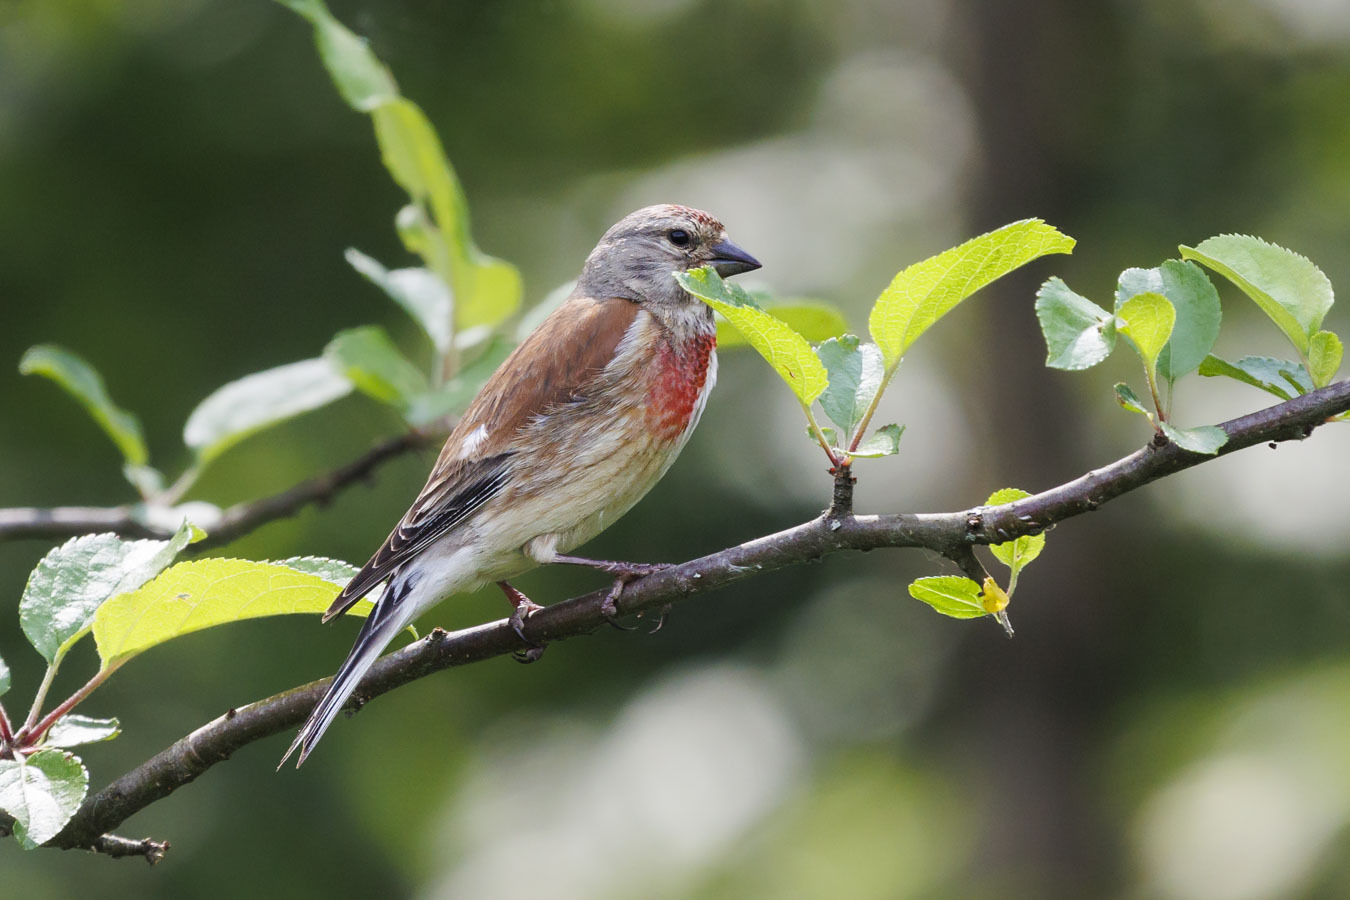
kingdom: Animalia
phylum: Chordata
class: Aves
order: Passeriformes
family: Fringillidae
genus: Linaria
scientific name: Linaria cannabina
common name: Common linnet
